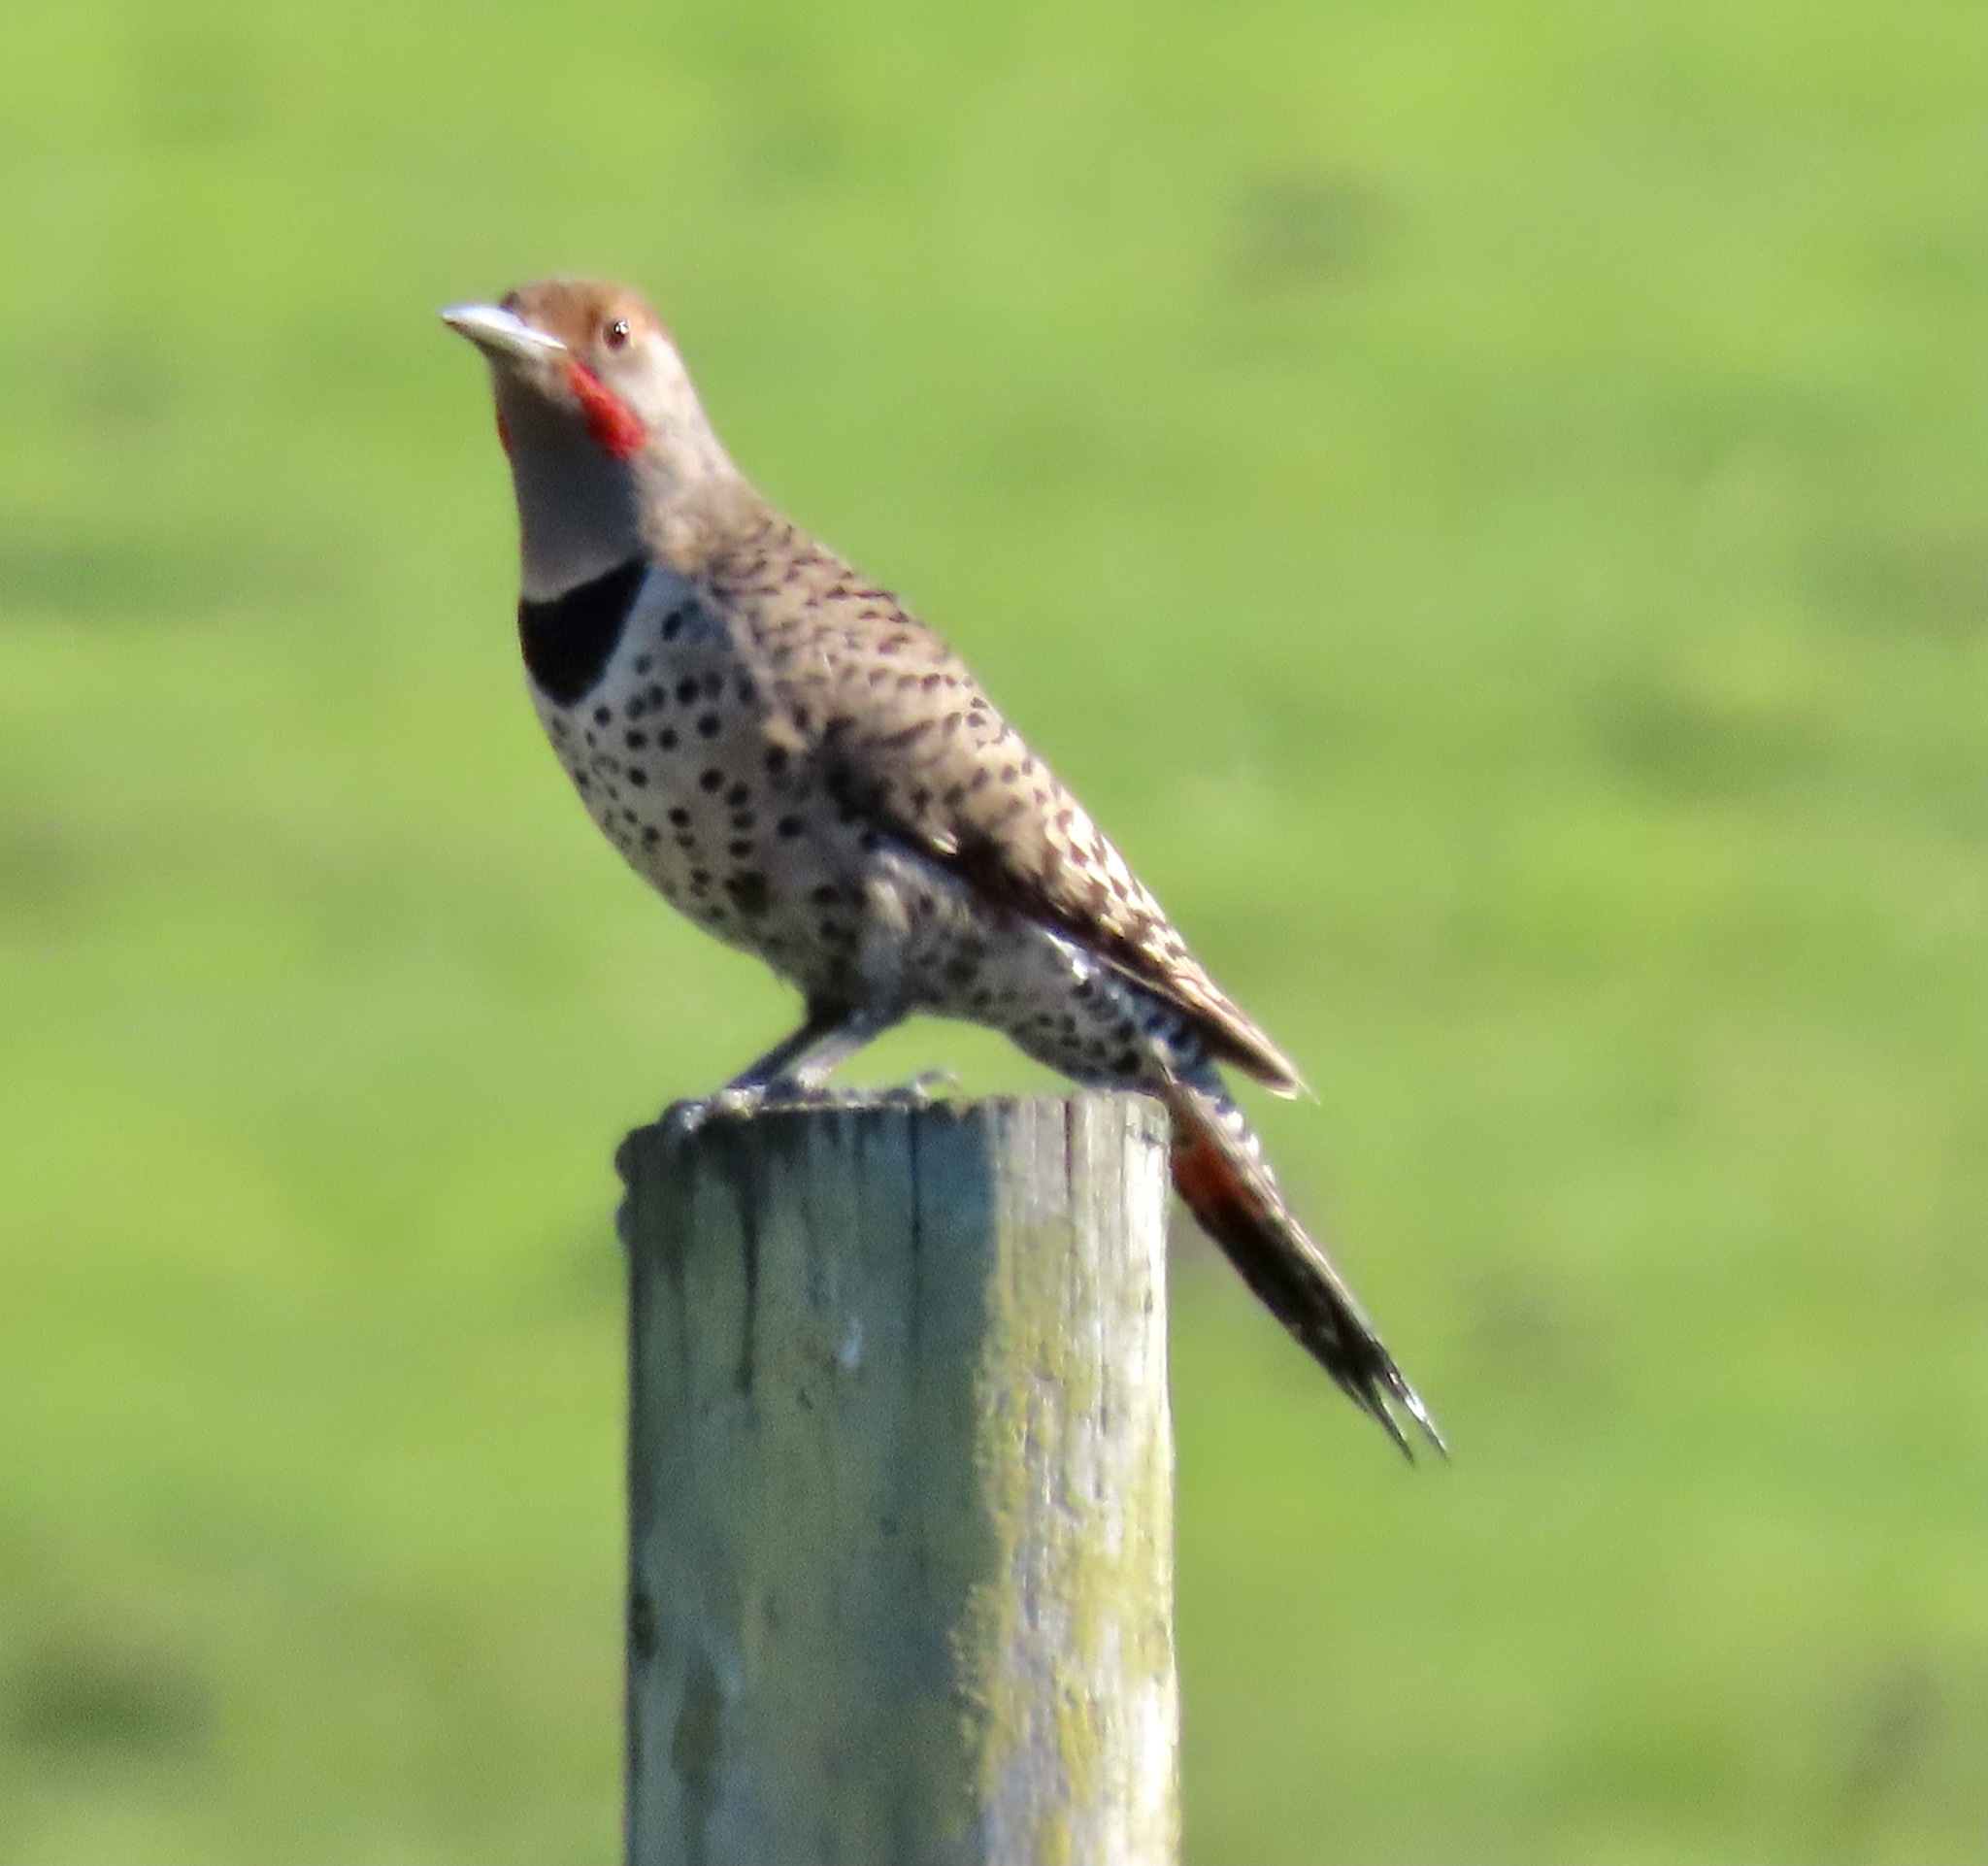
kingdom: Animalia
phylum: Chordata
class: Aves
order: Piciformes
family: Picidae
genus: Colaptes
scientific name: Colaptes auratus
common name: Northern flicker
